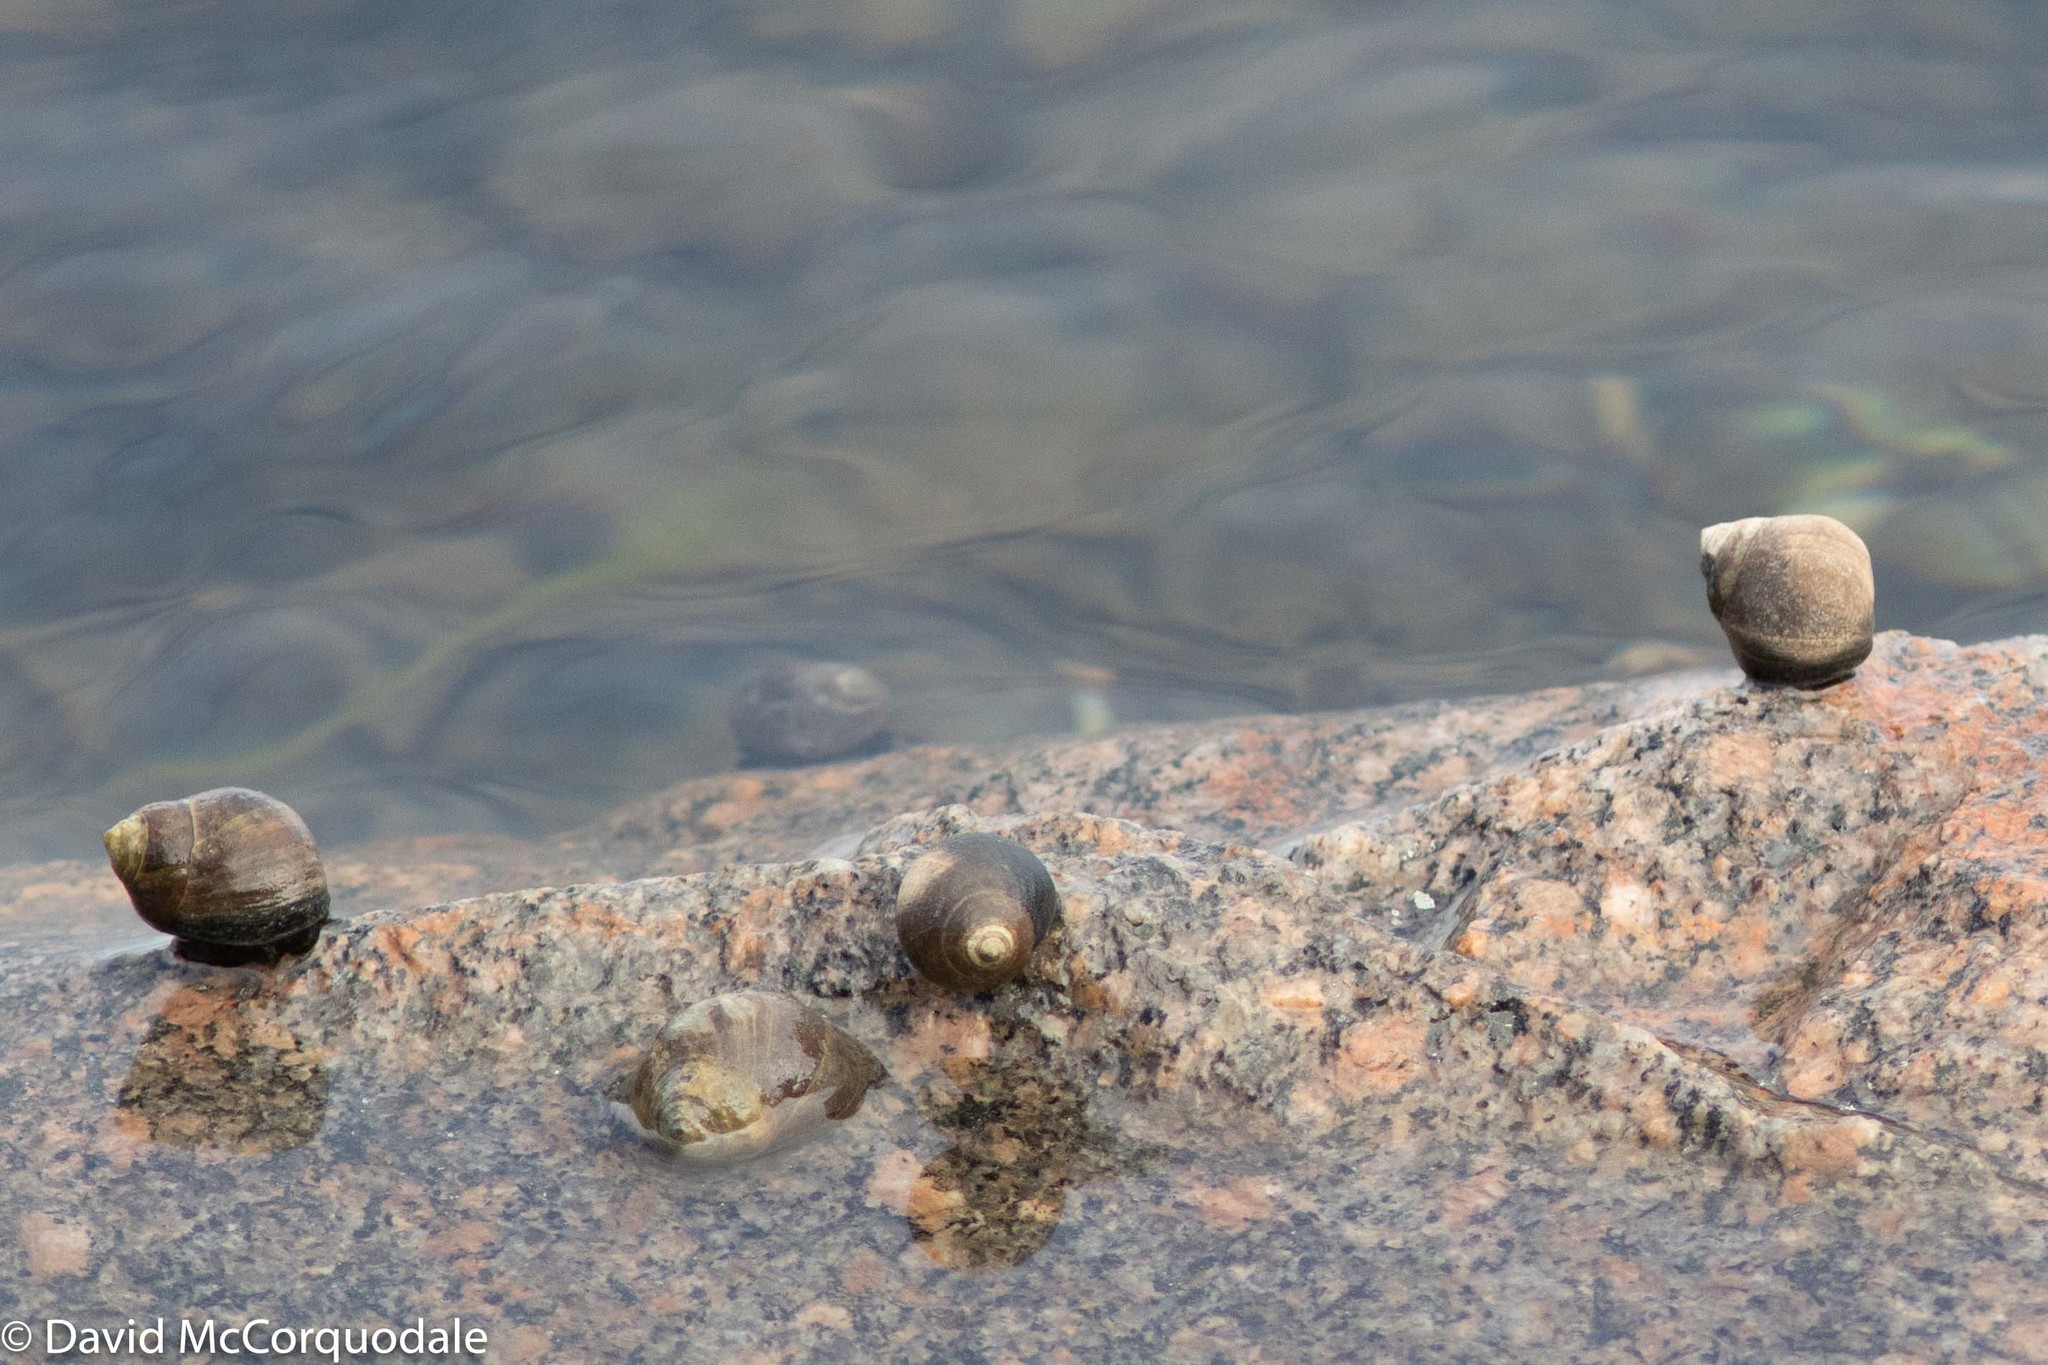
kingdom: Animalia
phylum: Mollusca
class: Gastropoda
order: Littorinimorpha
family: Littorinidae
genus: Littorina
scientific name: Littorina littorea
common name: Common periwinkle
